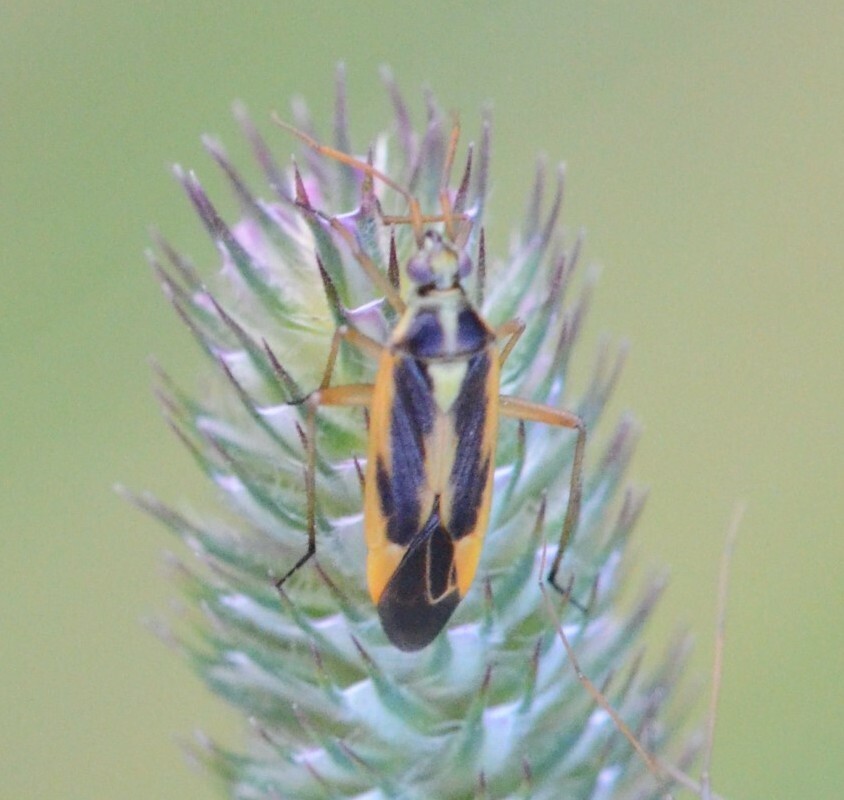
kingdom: Animalia
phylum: Arthropoda
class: Insecta
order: Hemiptera
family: Miridae
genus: Stenotus
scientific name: Stenotus binotatus
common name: Plant bug
